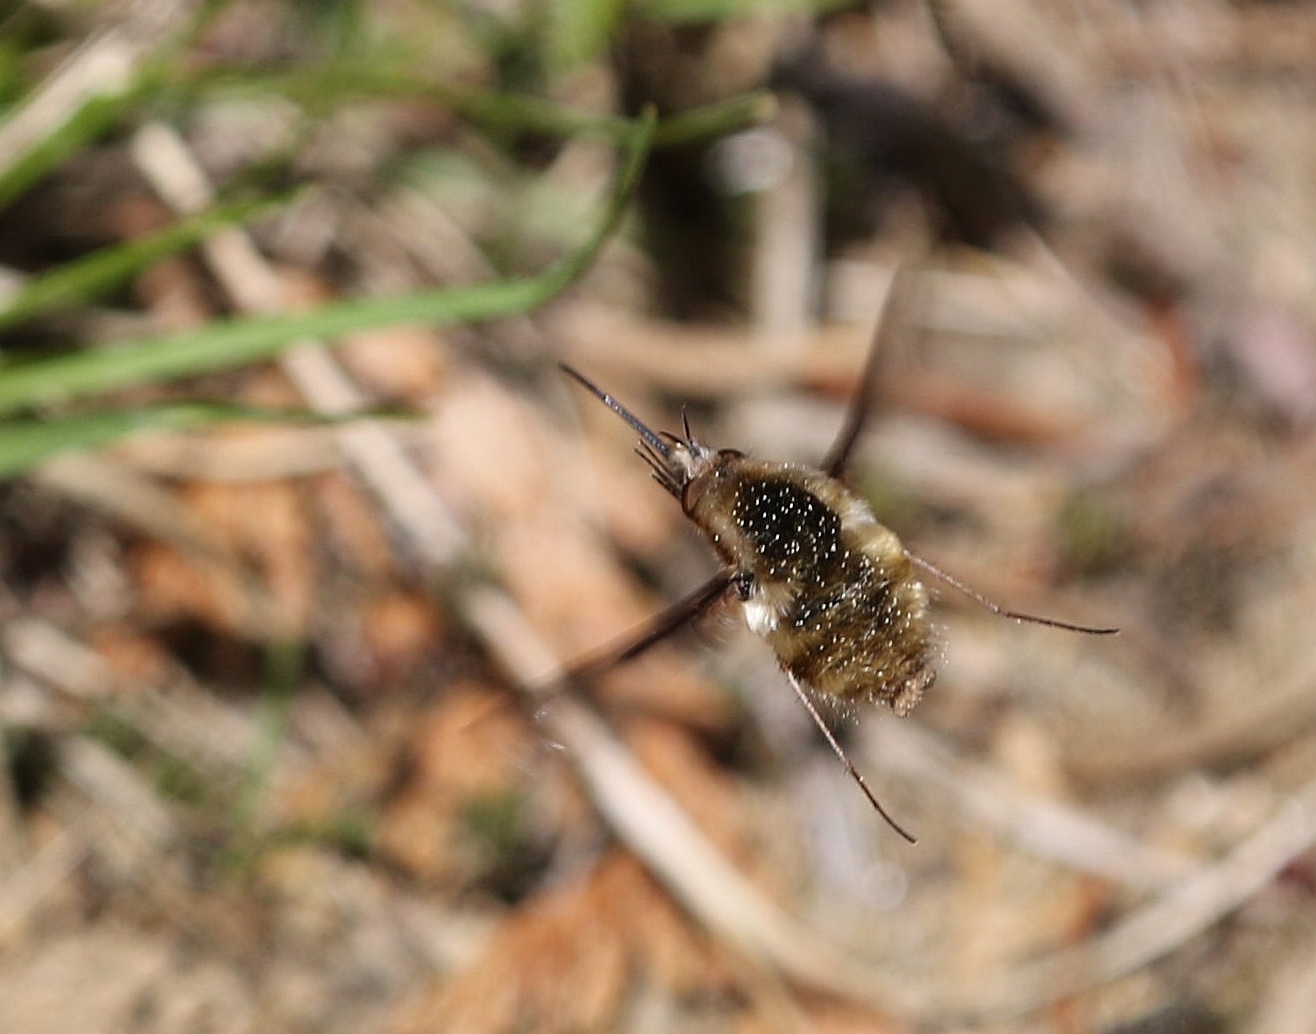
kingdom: Animalia
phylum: Arthropoda
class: Insecta
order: Diptera
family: Bombyliidae
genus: Bombylius
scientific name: Bombylius major
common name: Bee fly
